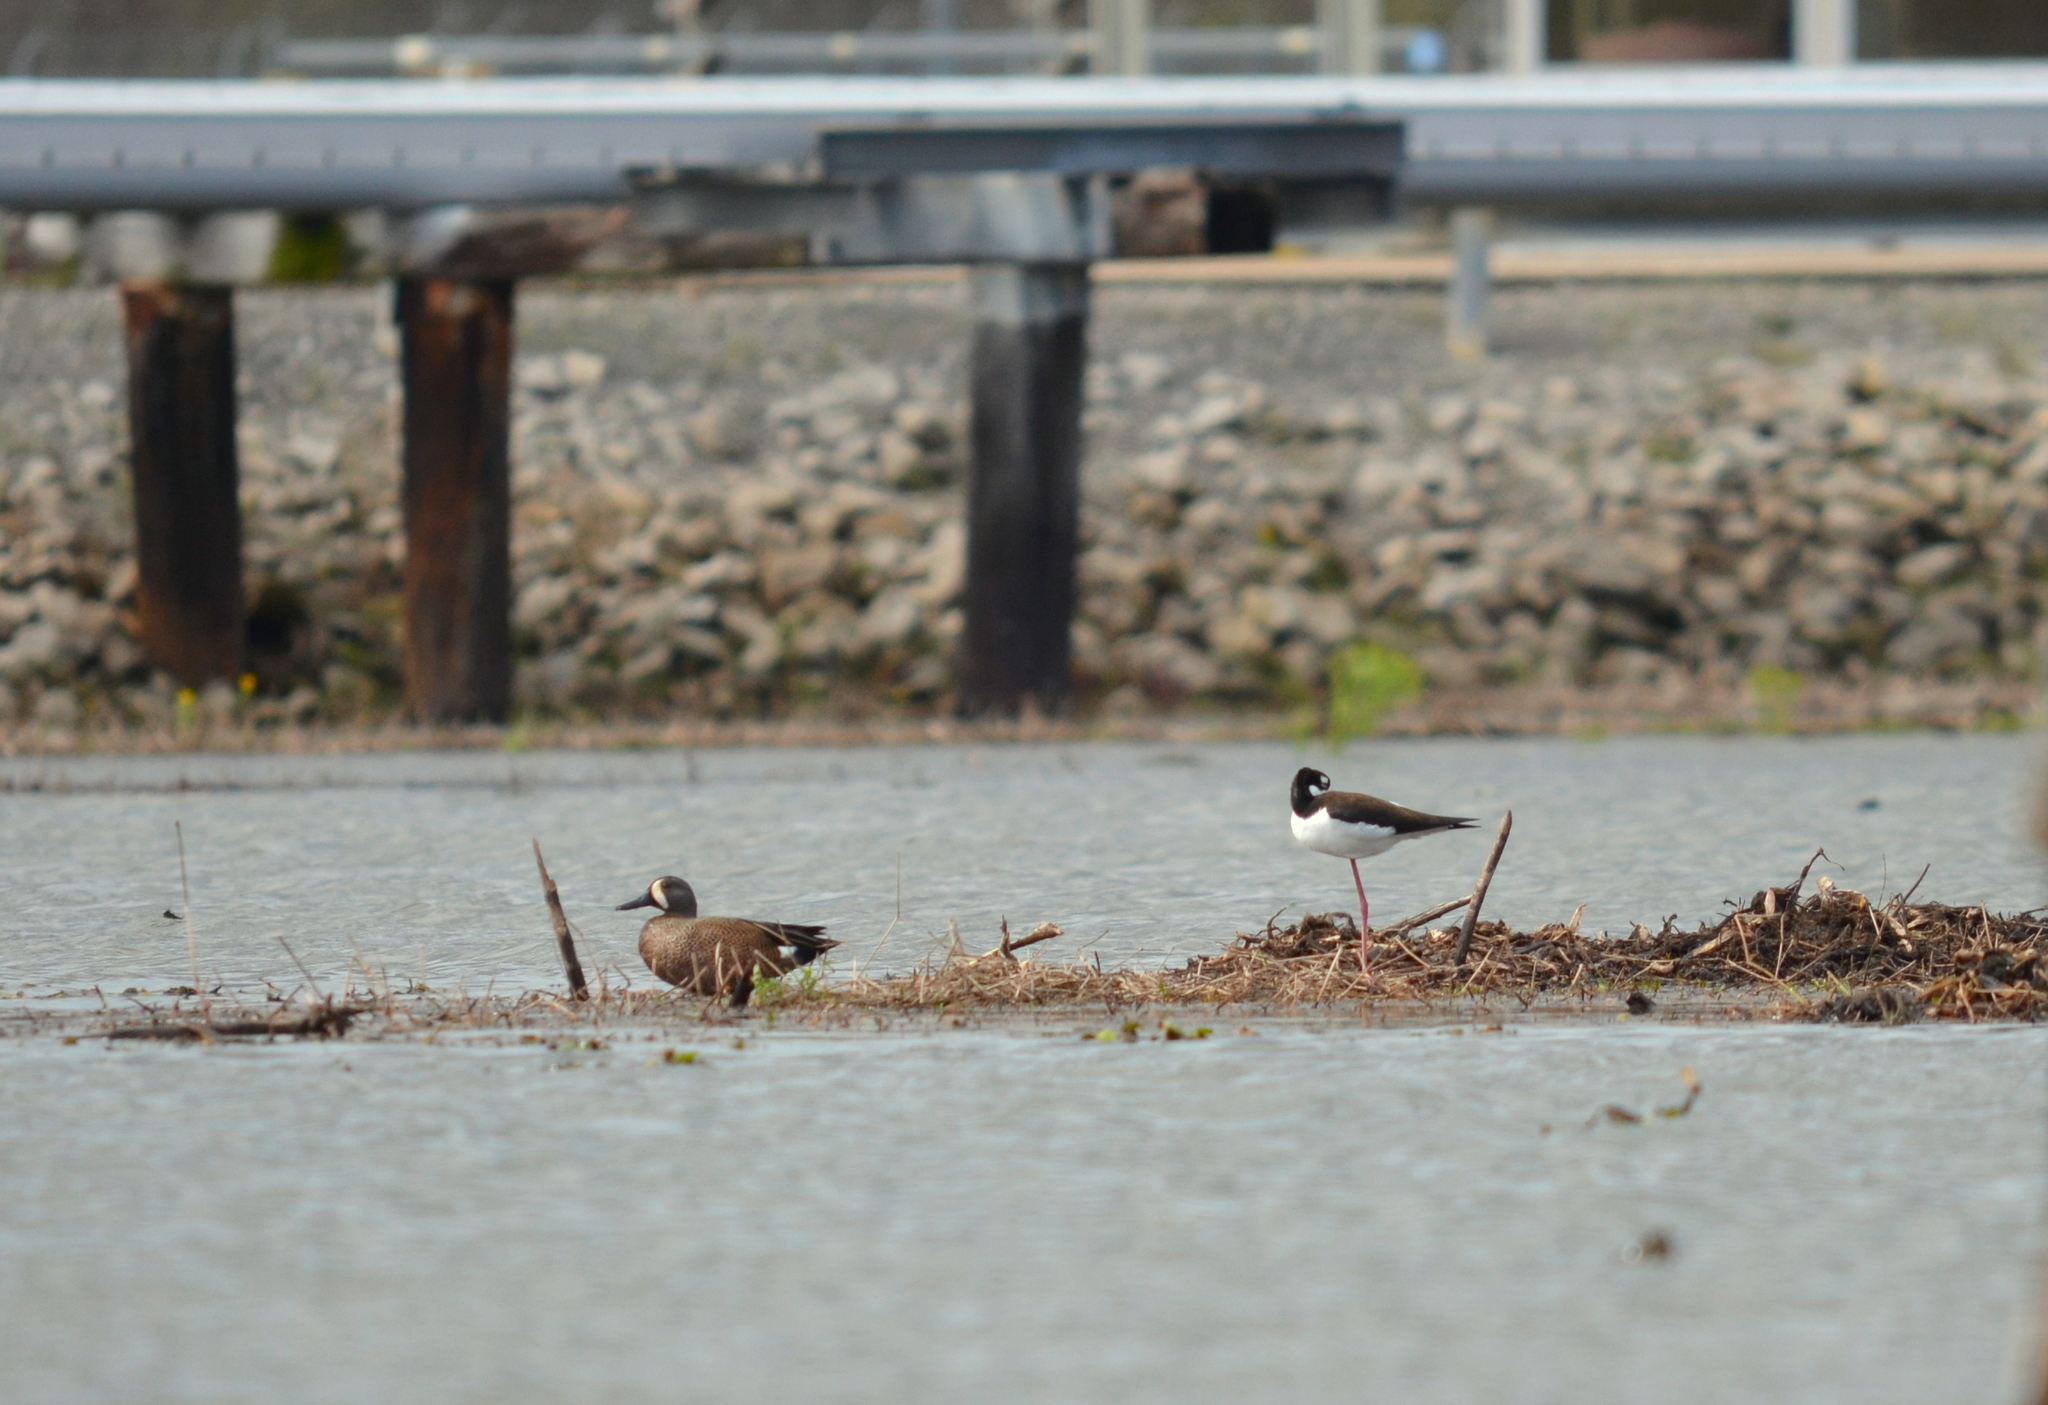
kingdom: Animalia
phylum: Chordata
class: Aves
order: Anseriformes
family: Anatidae
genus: Spatula
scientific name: Spatula discors
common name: Blue-winged teal
